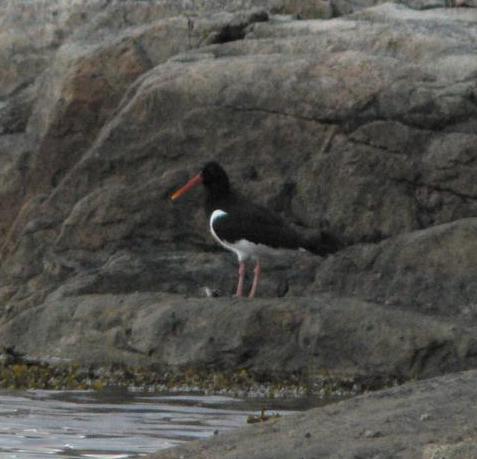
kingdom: Animalia
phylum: Chordata
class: Aves
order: Charadriiformes
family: Haematopodidae
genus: Haematopus
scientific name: Haematopus ostralegus
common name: Eurasian oystercatcher
